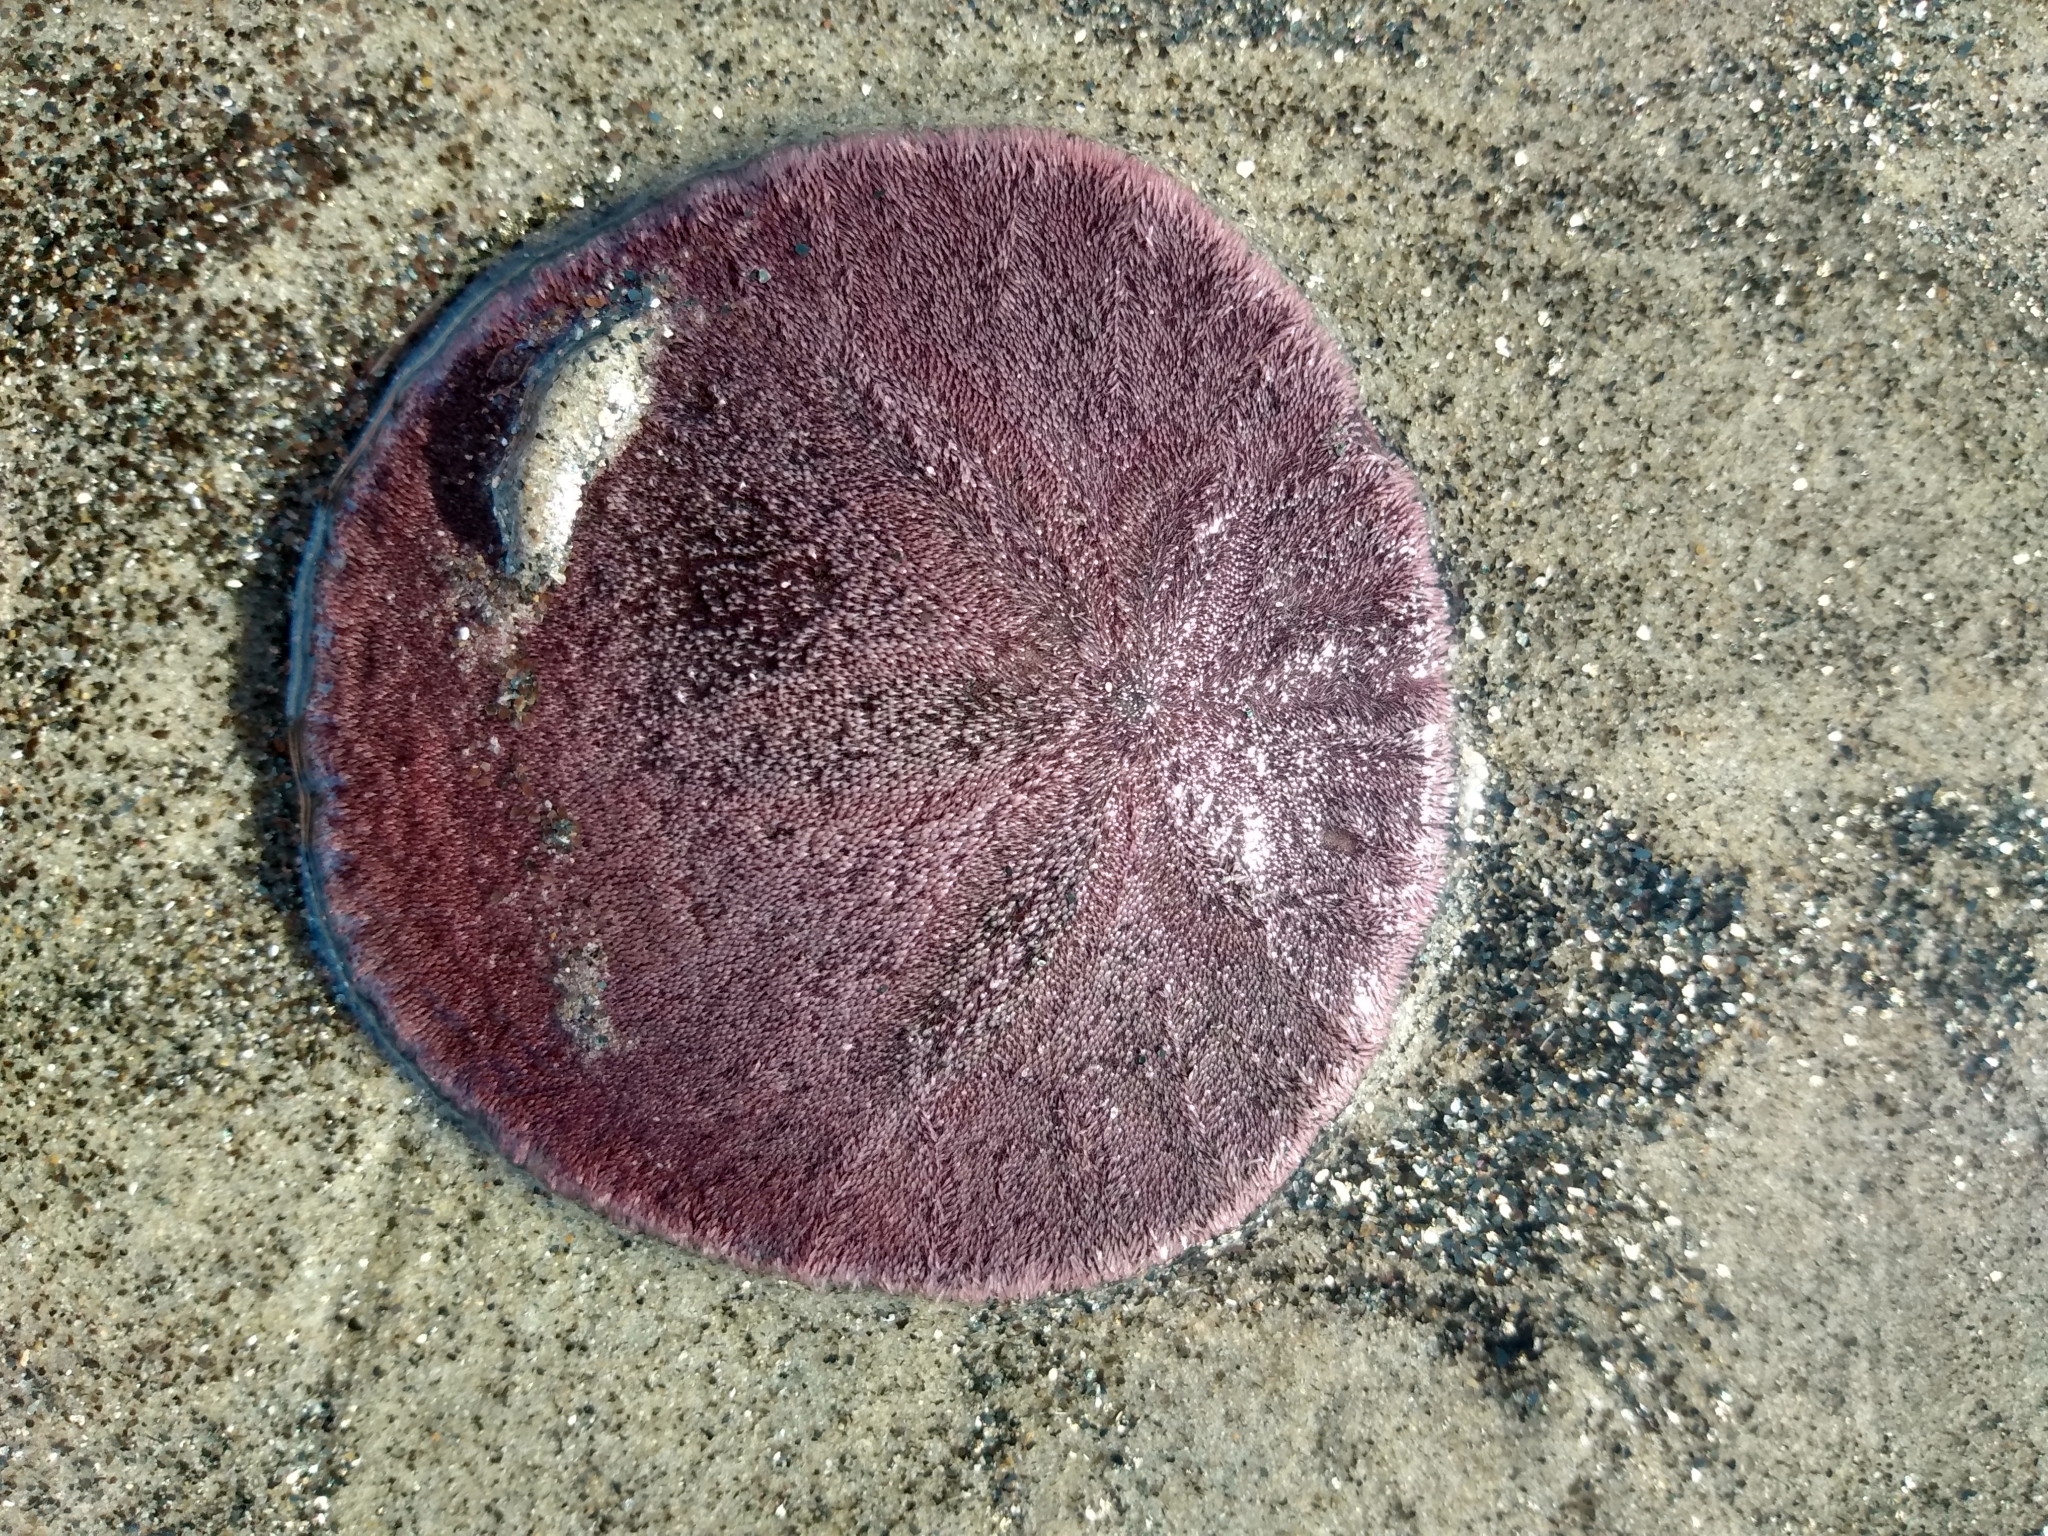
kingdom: Animalia
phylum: Echinodermata
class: Echinoidea
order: Echinolampadacea
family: Dendrasteridae
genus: Dendraster
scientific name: Dendraster excentricus
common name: Eccentric sand dollar sea urchin
